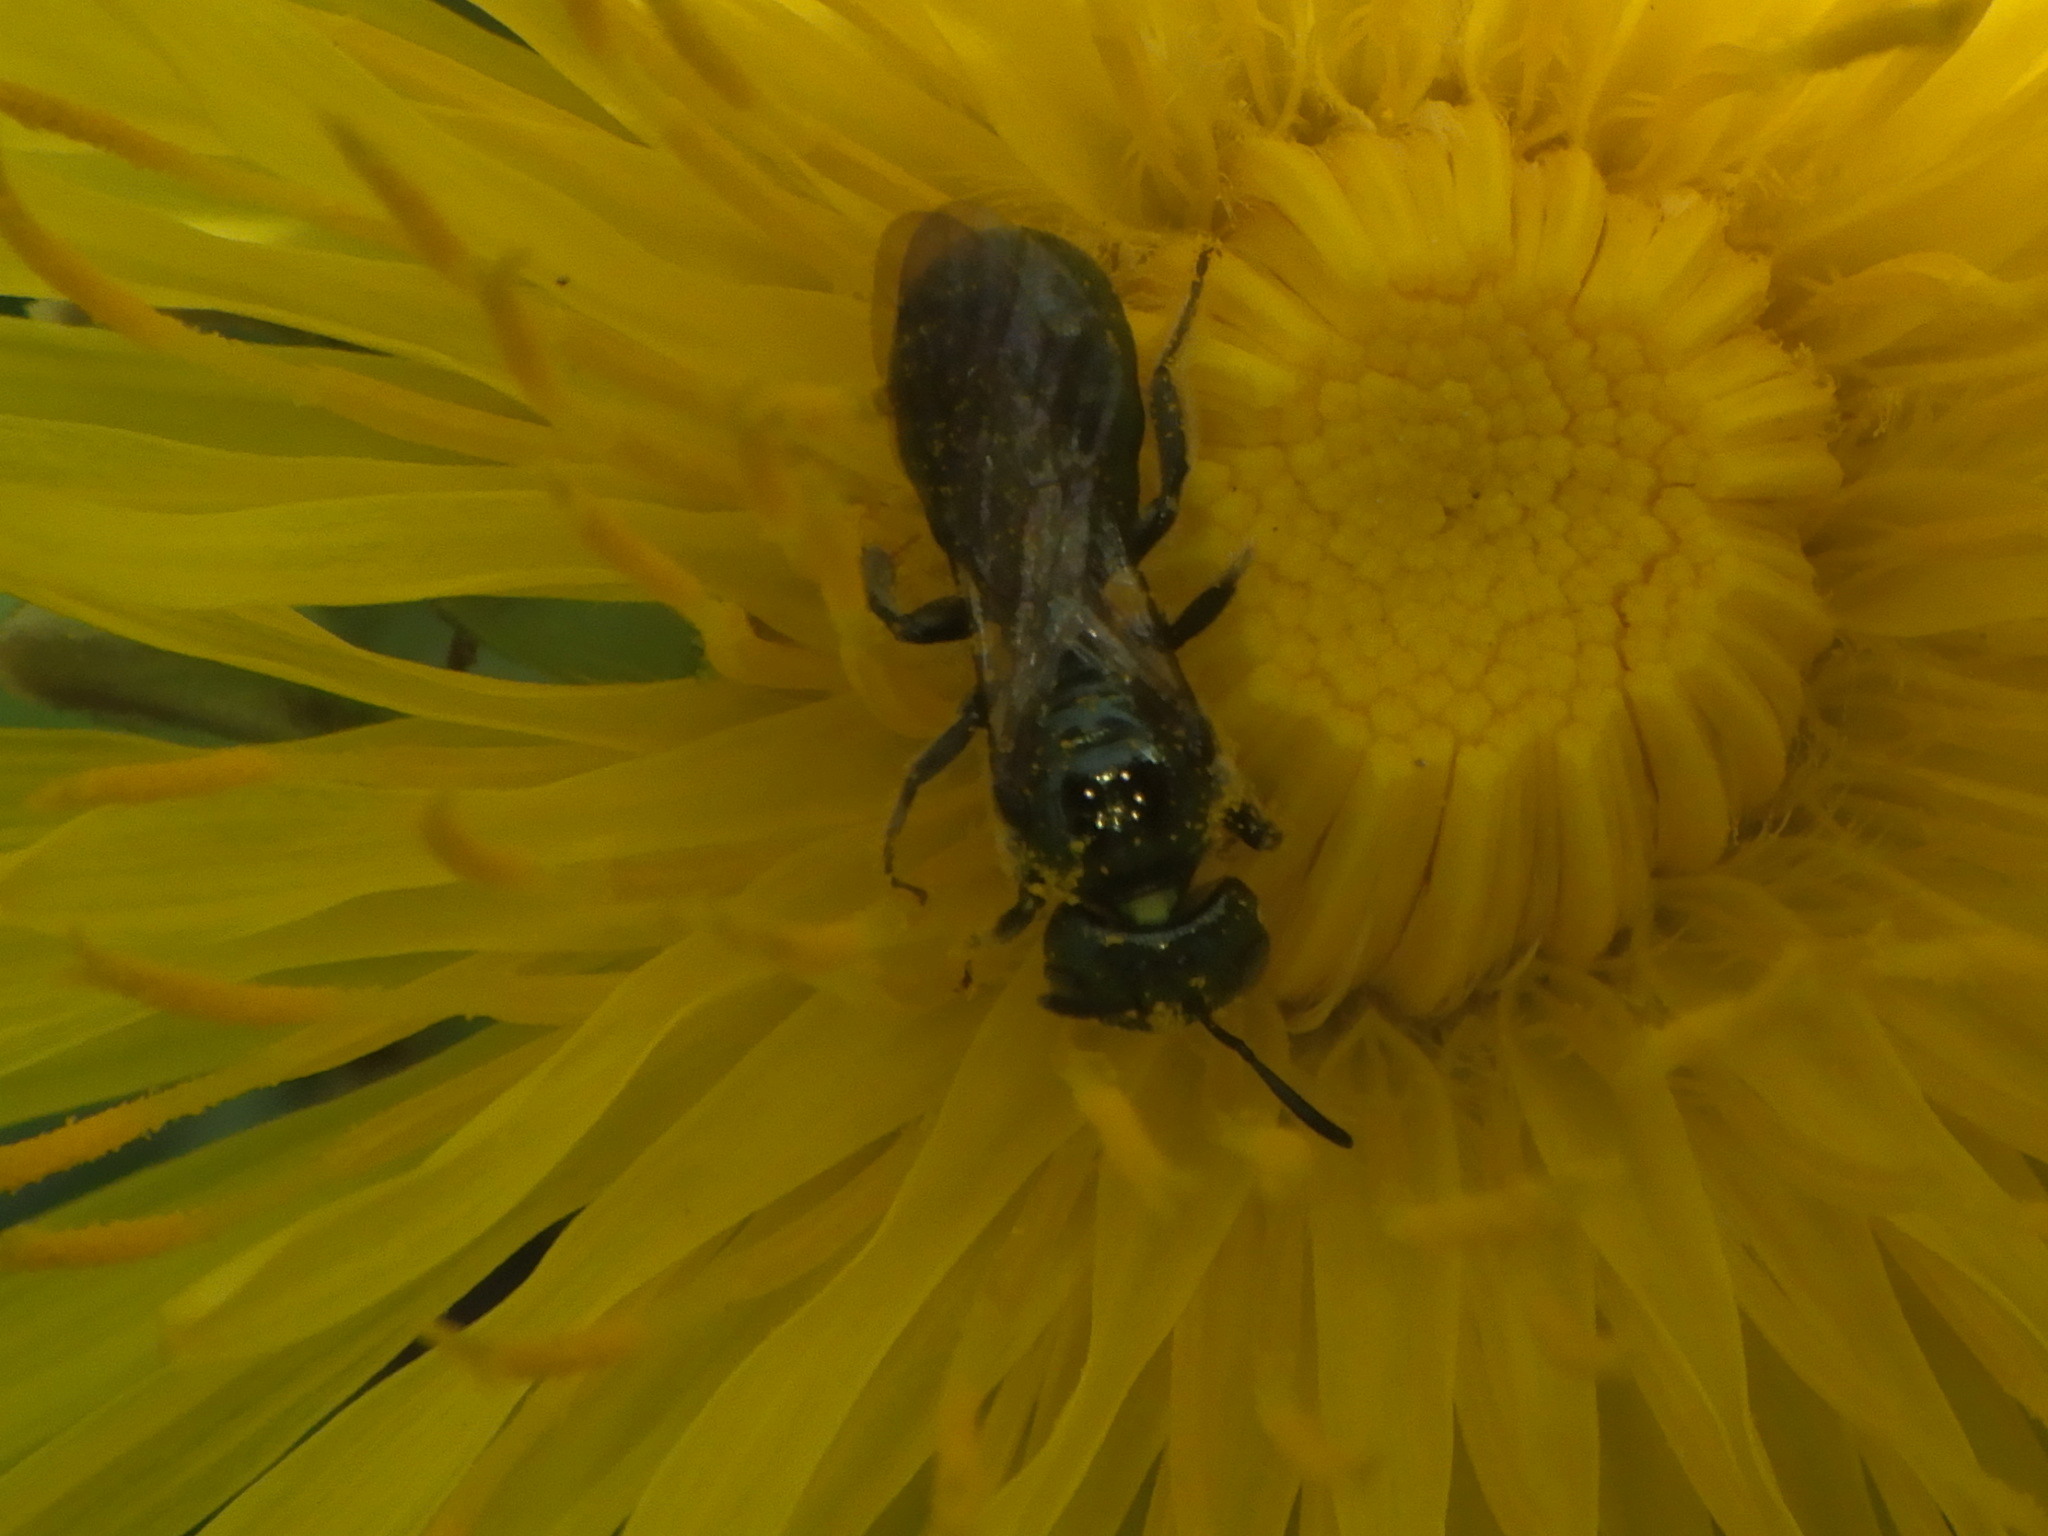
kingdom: Animalia
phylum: Arthropoda
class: Insecta
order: Hymenoptera
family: Apidae
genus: Zadontomerus
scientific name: Zadontomerus
